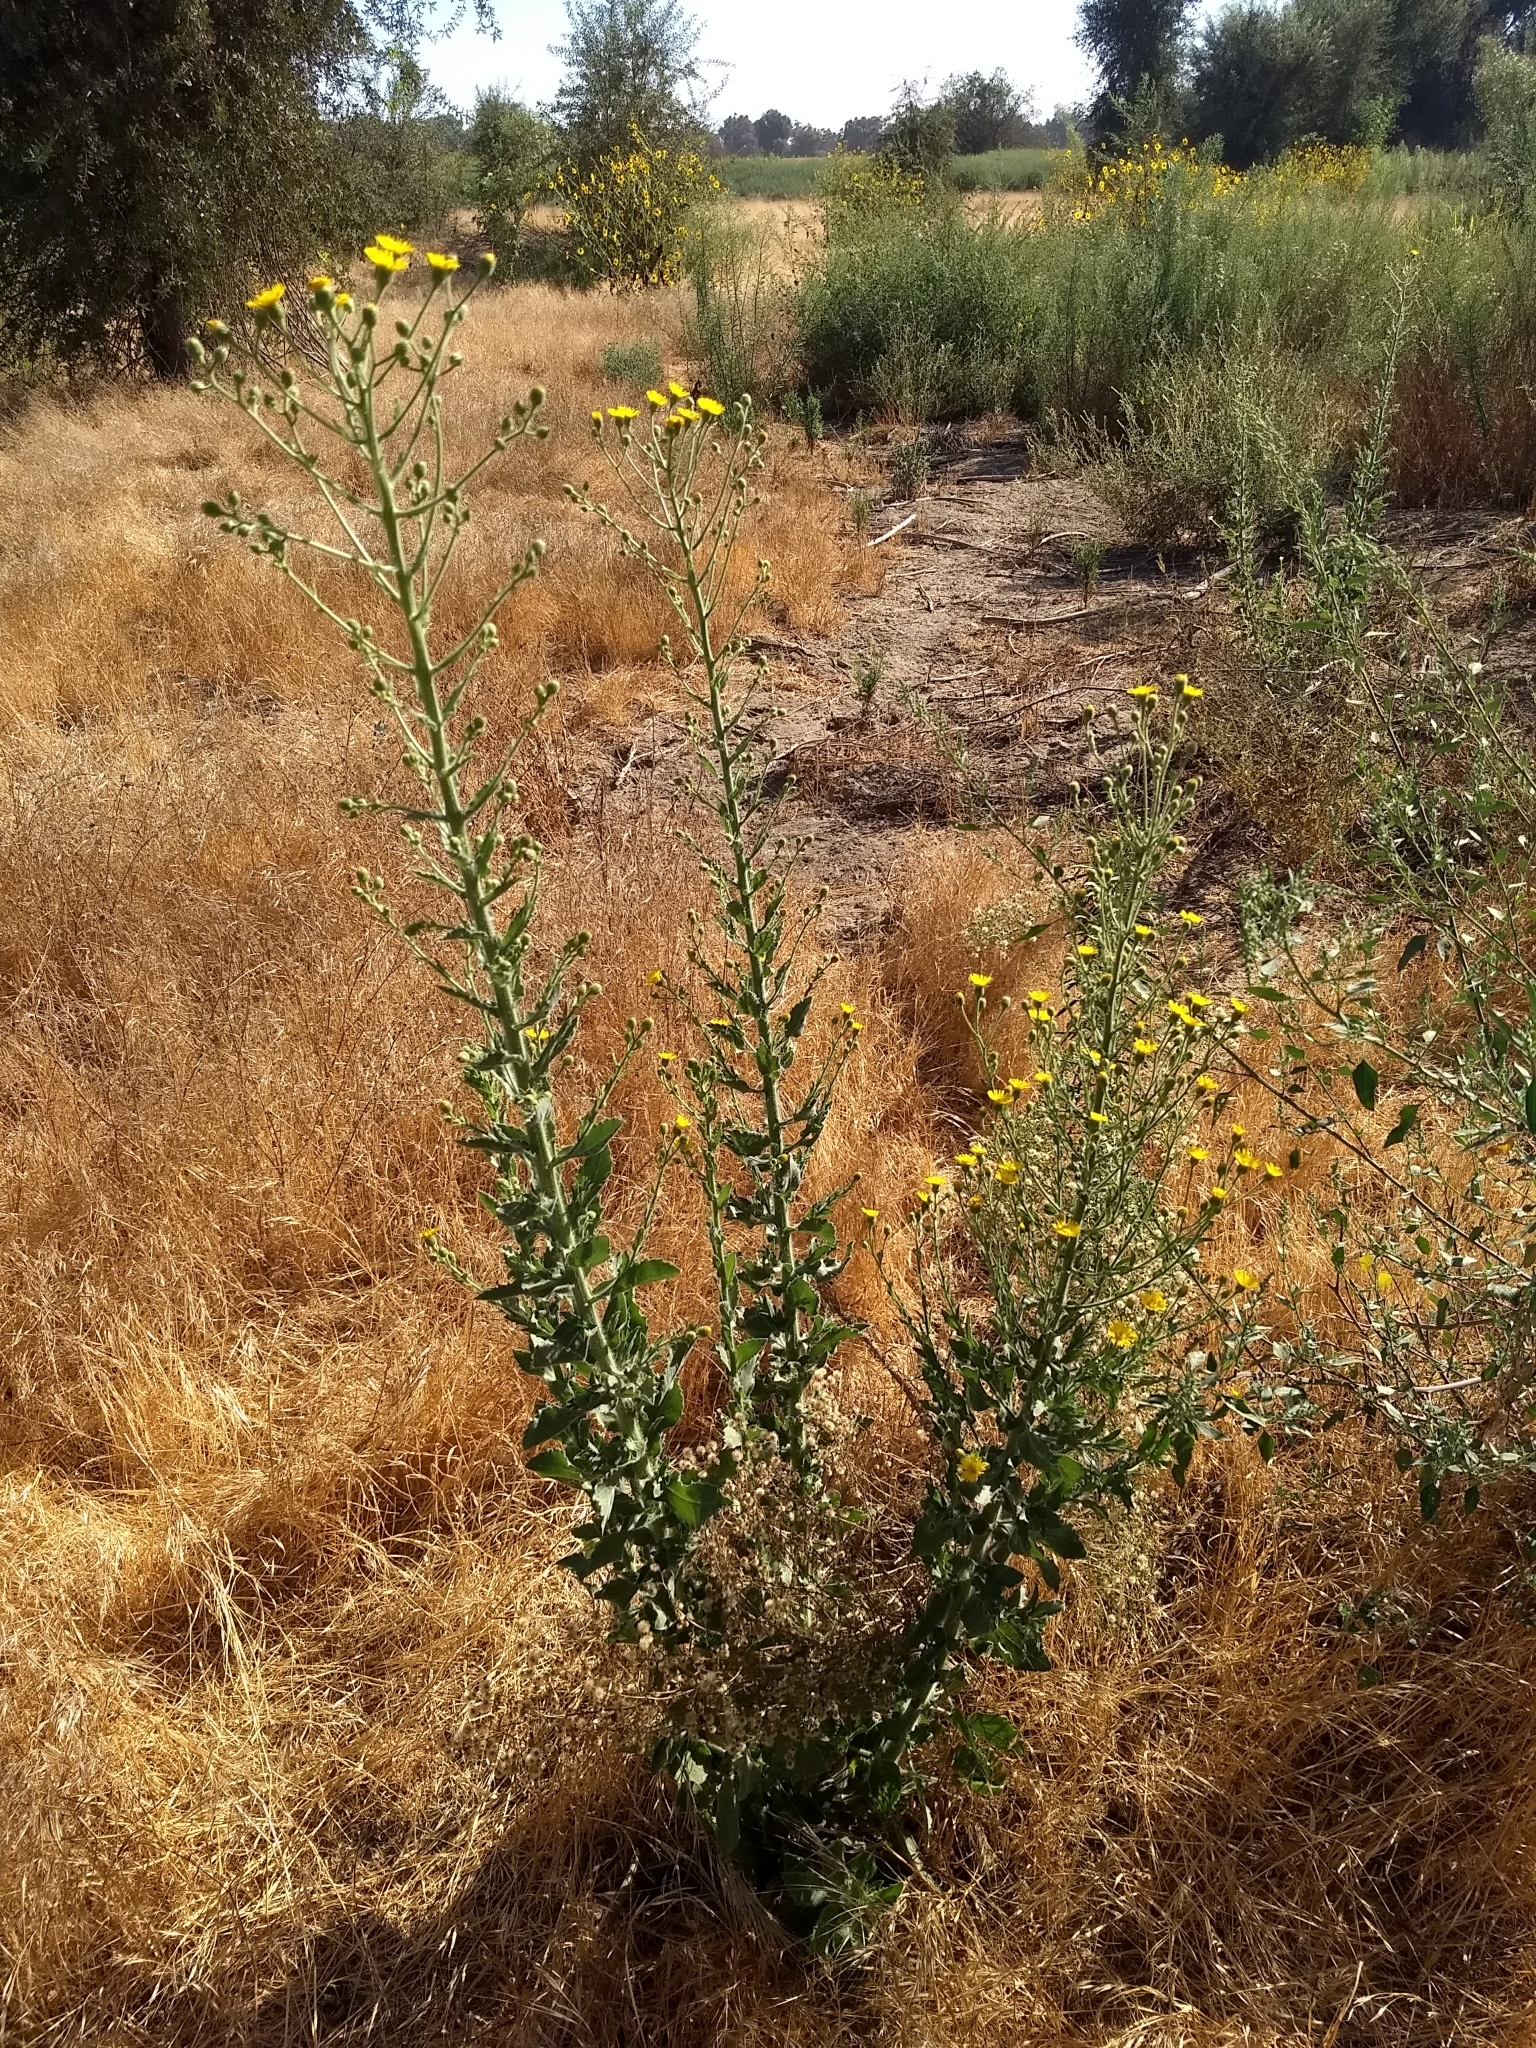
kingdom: Plantae
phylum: Tracheophyta
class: Magnoliopsida
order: Asterales
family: Asteraceae
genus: Heterotheca
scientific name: Heterotheca grandiflora
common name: Telegraphweed
